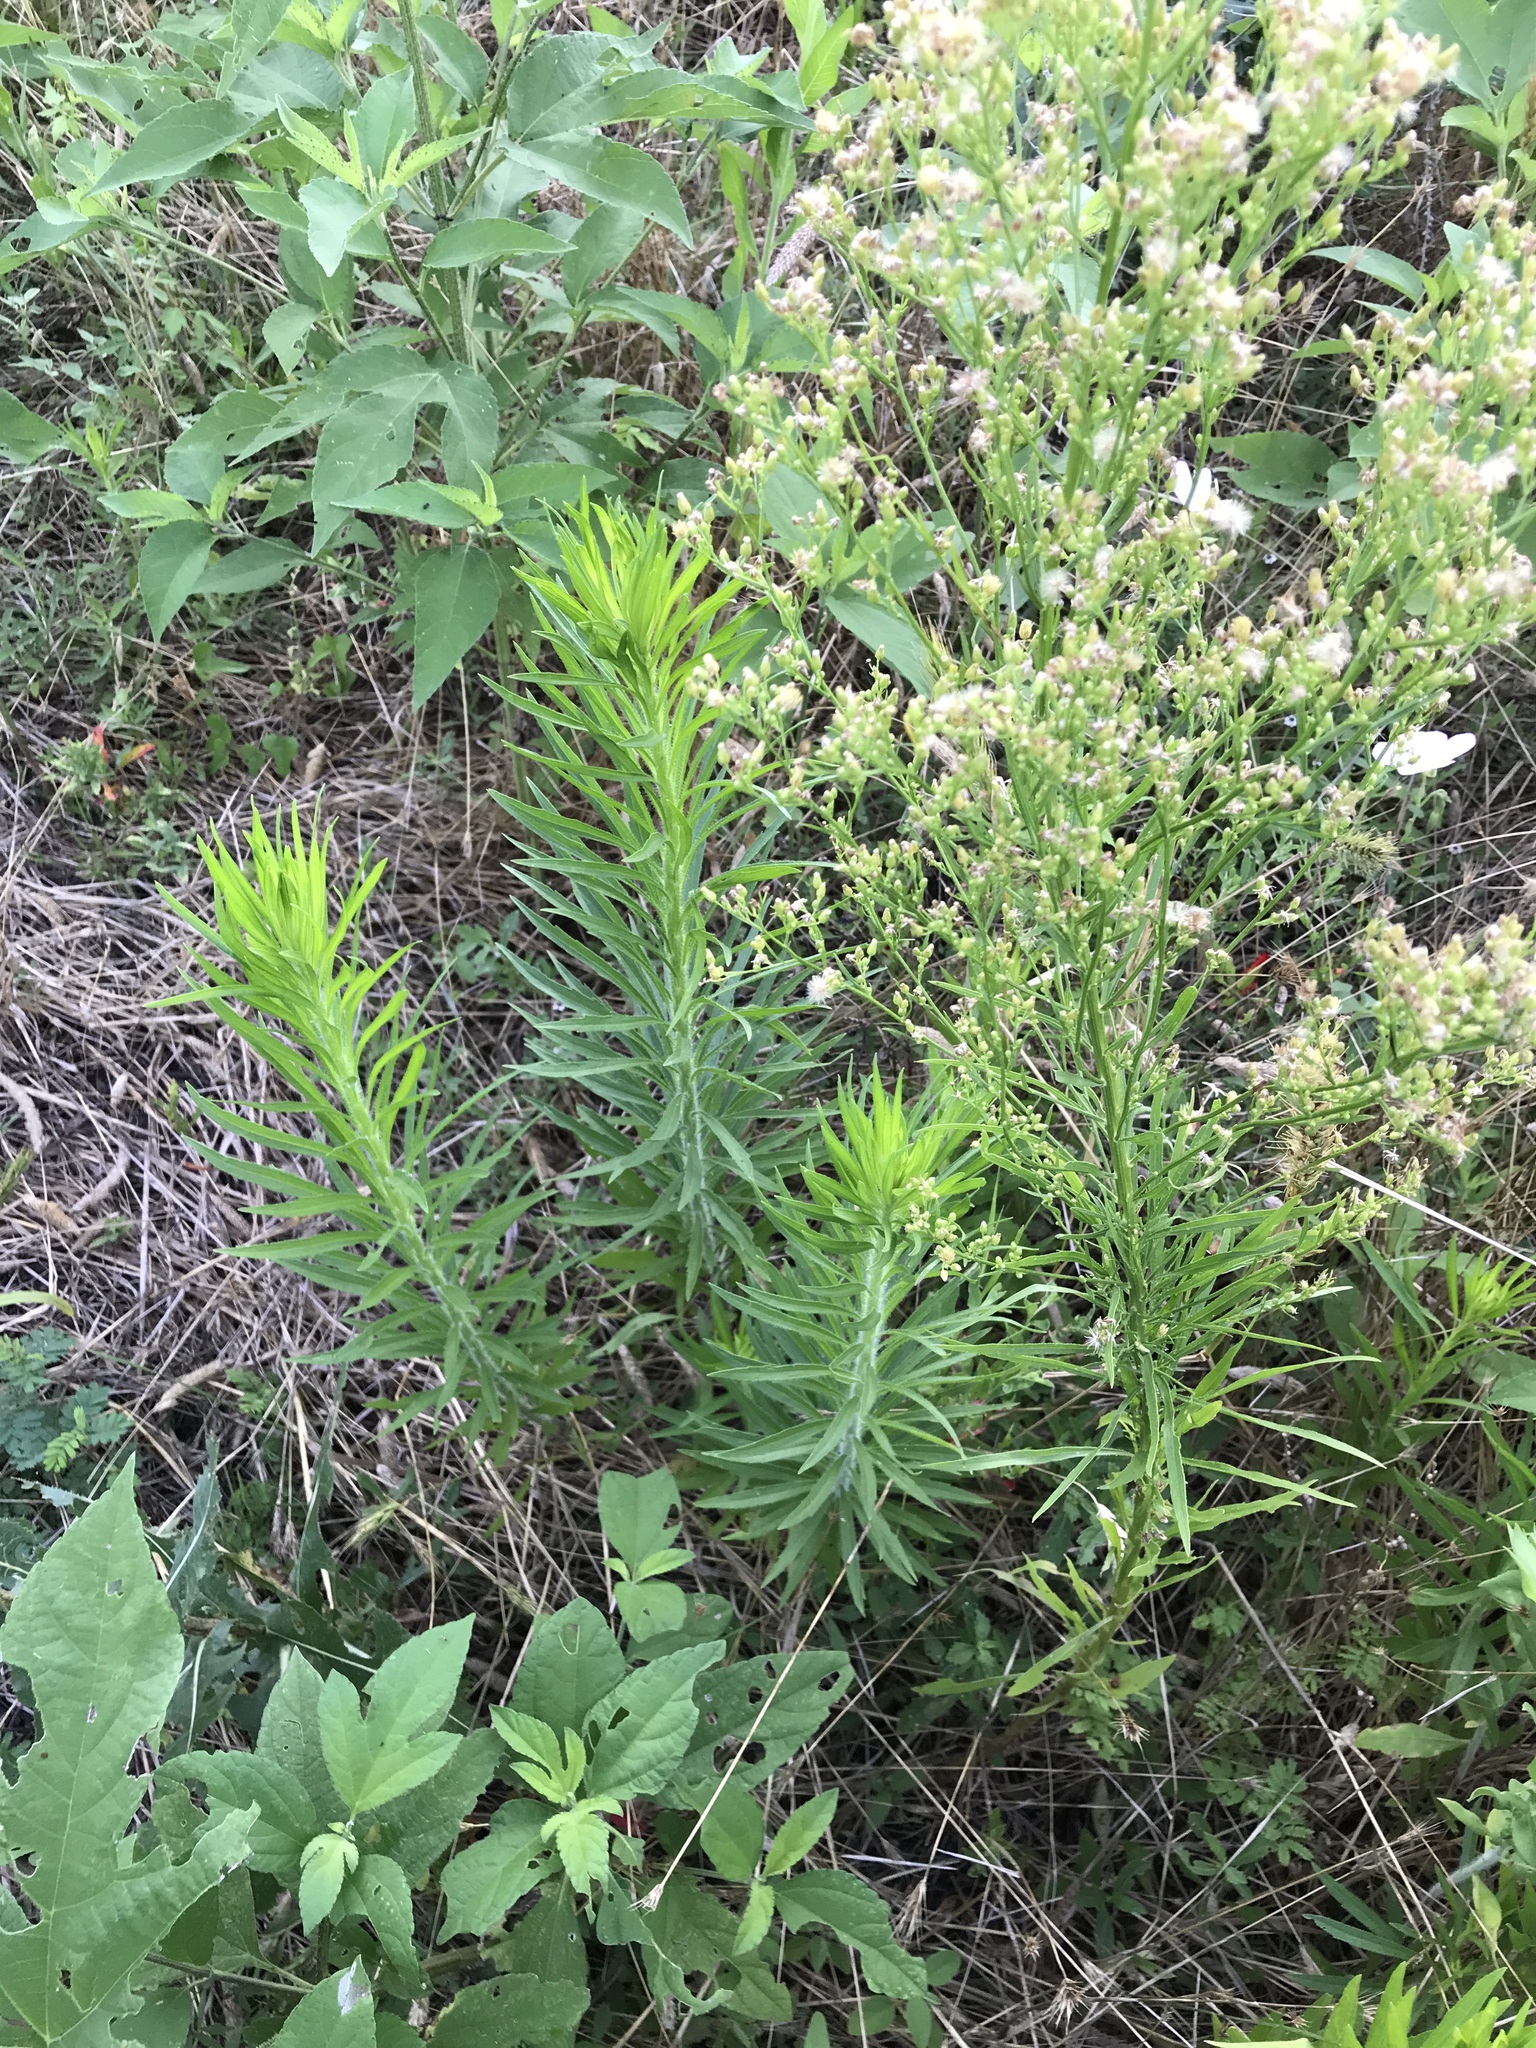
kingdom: Plantae
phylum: Tracheophyta
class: Magnoliopsida
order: Asterales
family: Asteraceae
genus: Erigeron
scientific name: Erigeron canadensis
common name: Canadian fleabane
